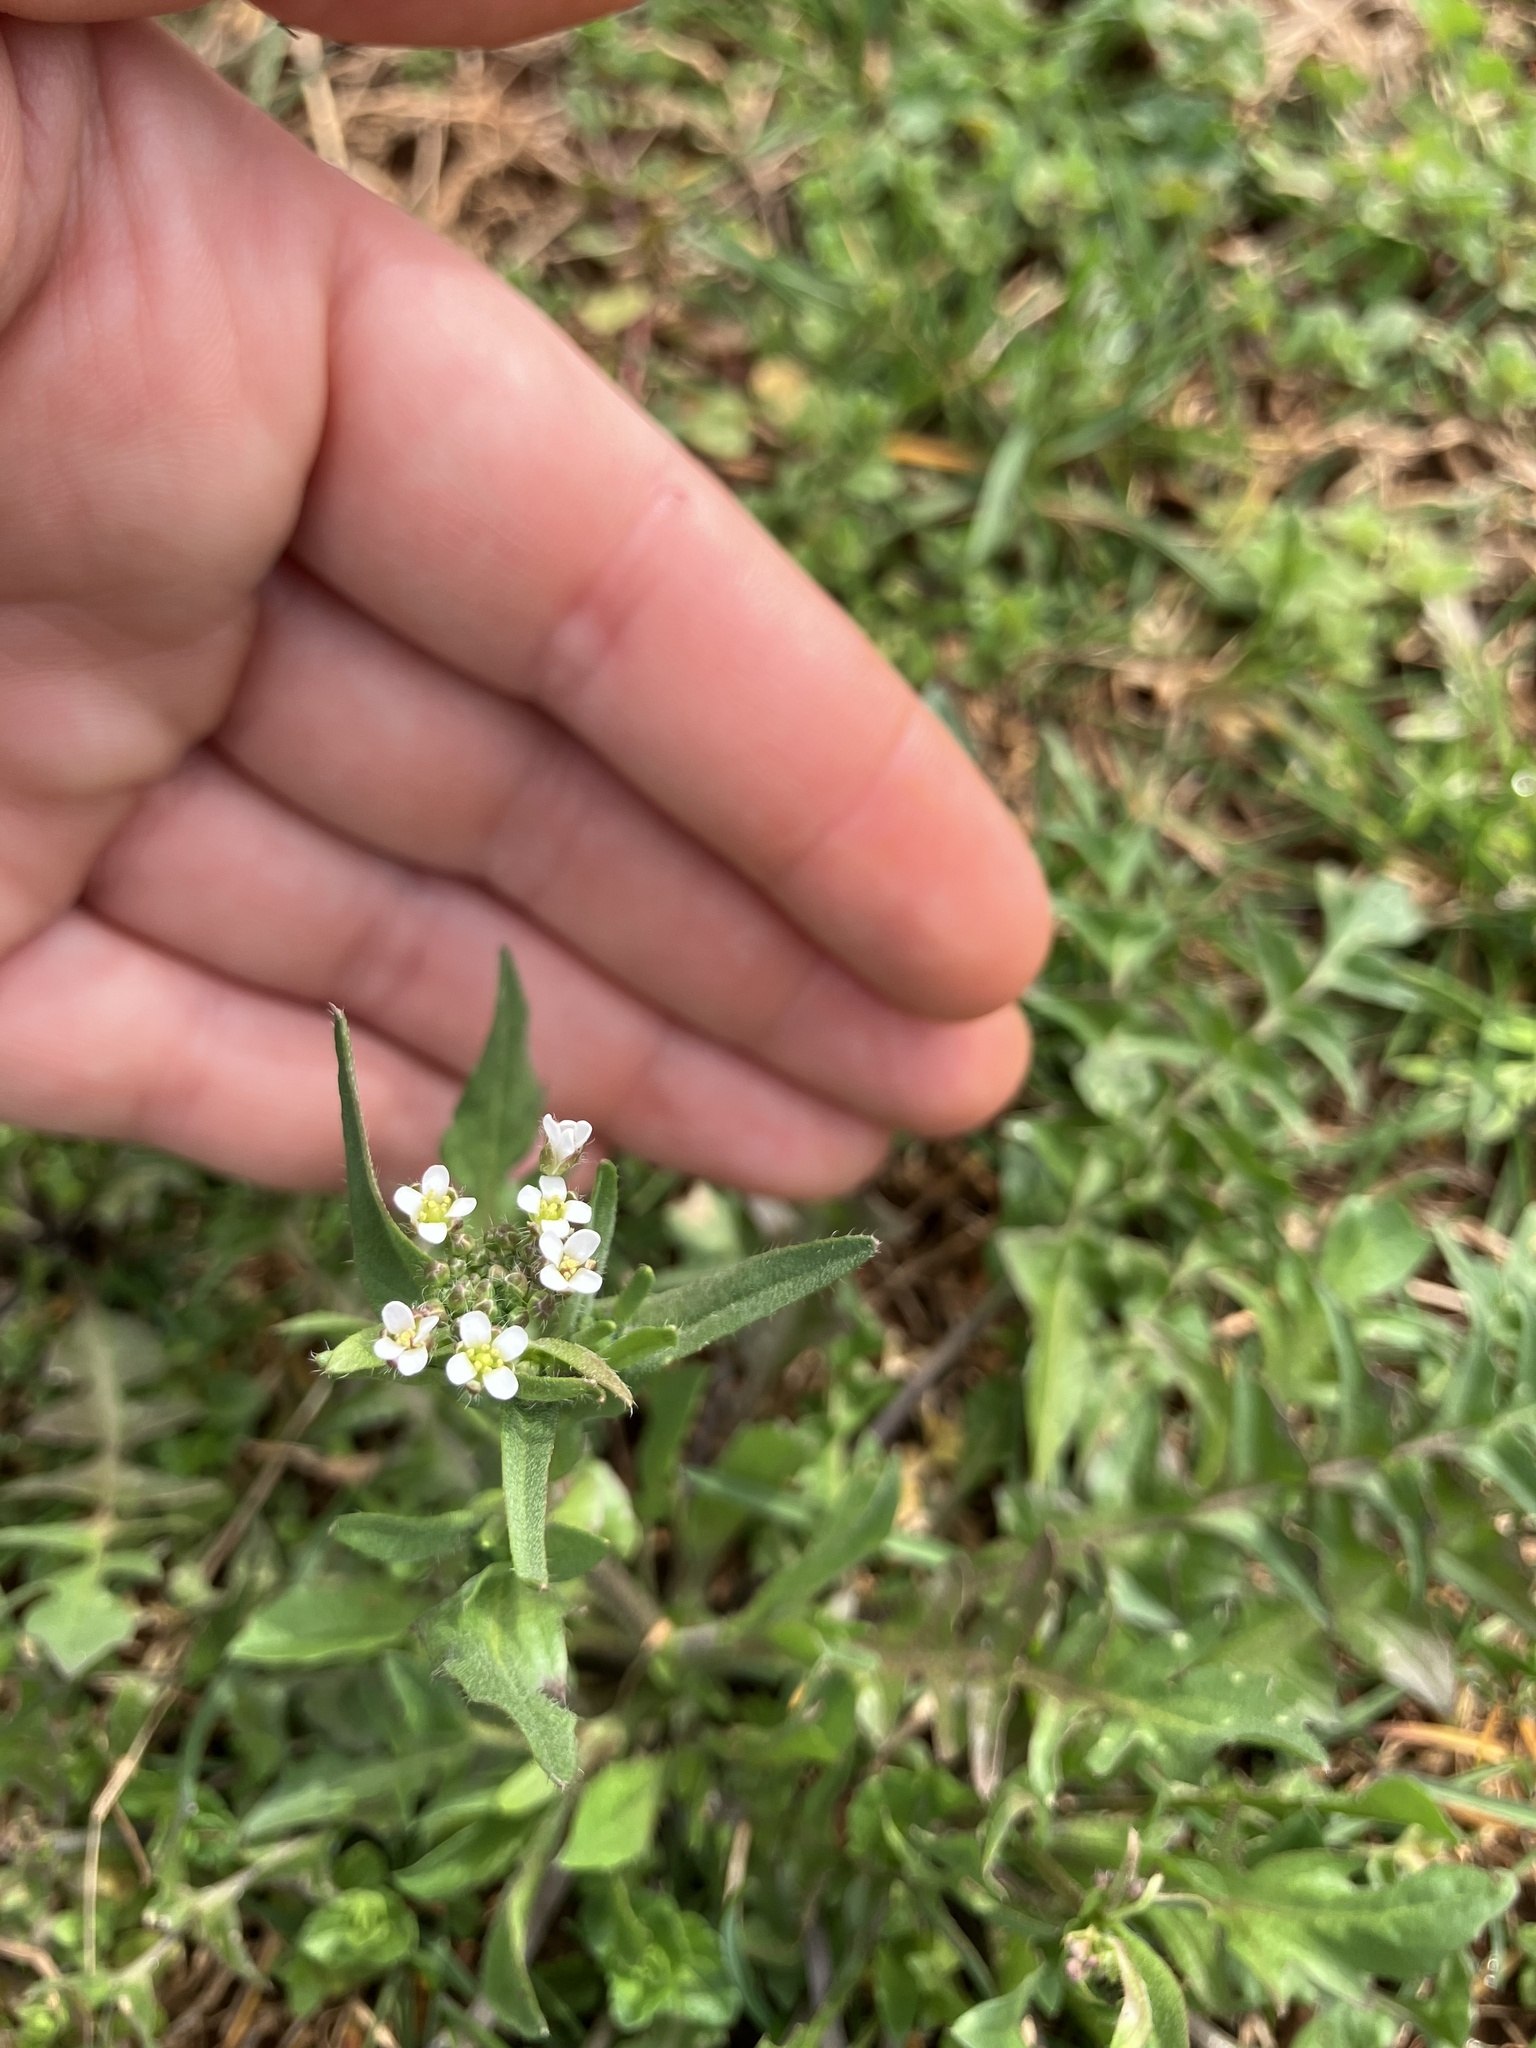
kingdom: Plantae
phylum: Tracheophyta
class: Magnoliopsida
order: Brassicales
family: Brassicaceae
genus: Capsella
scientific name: Capsella bursa-pastoris
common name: Shepherd's purse
